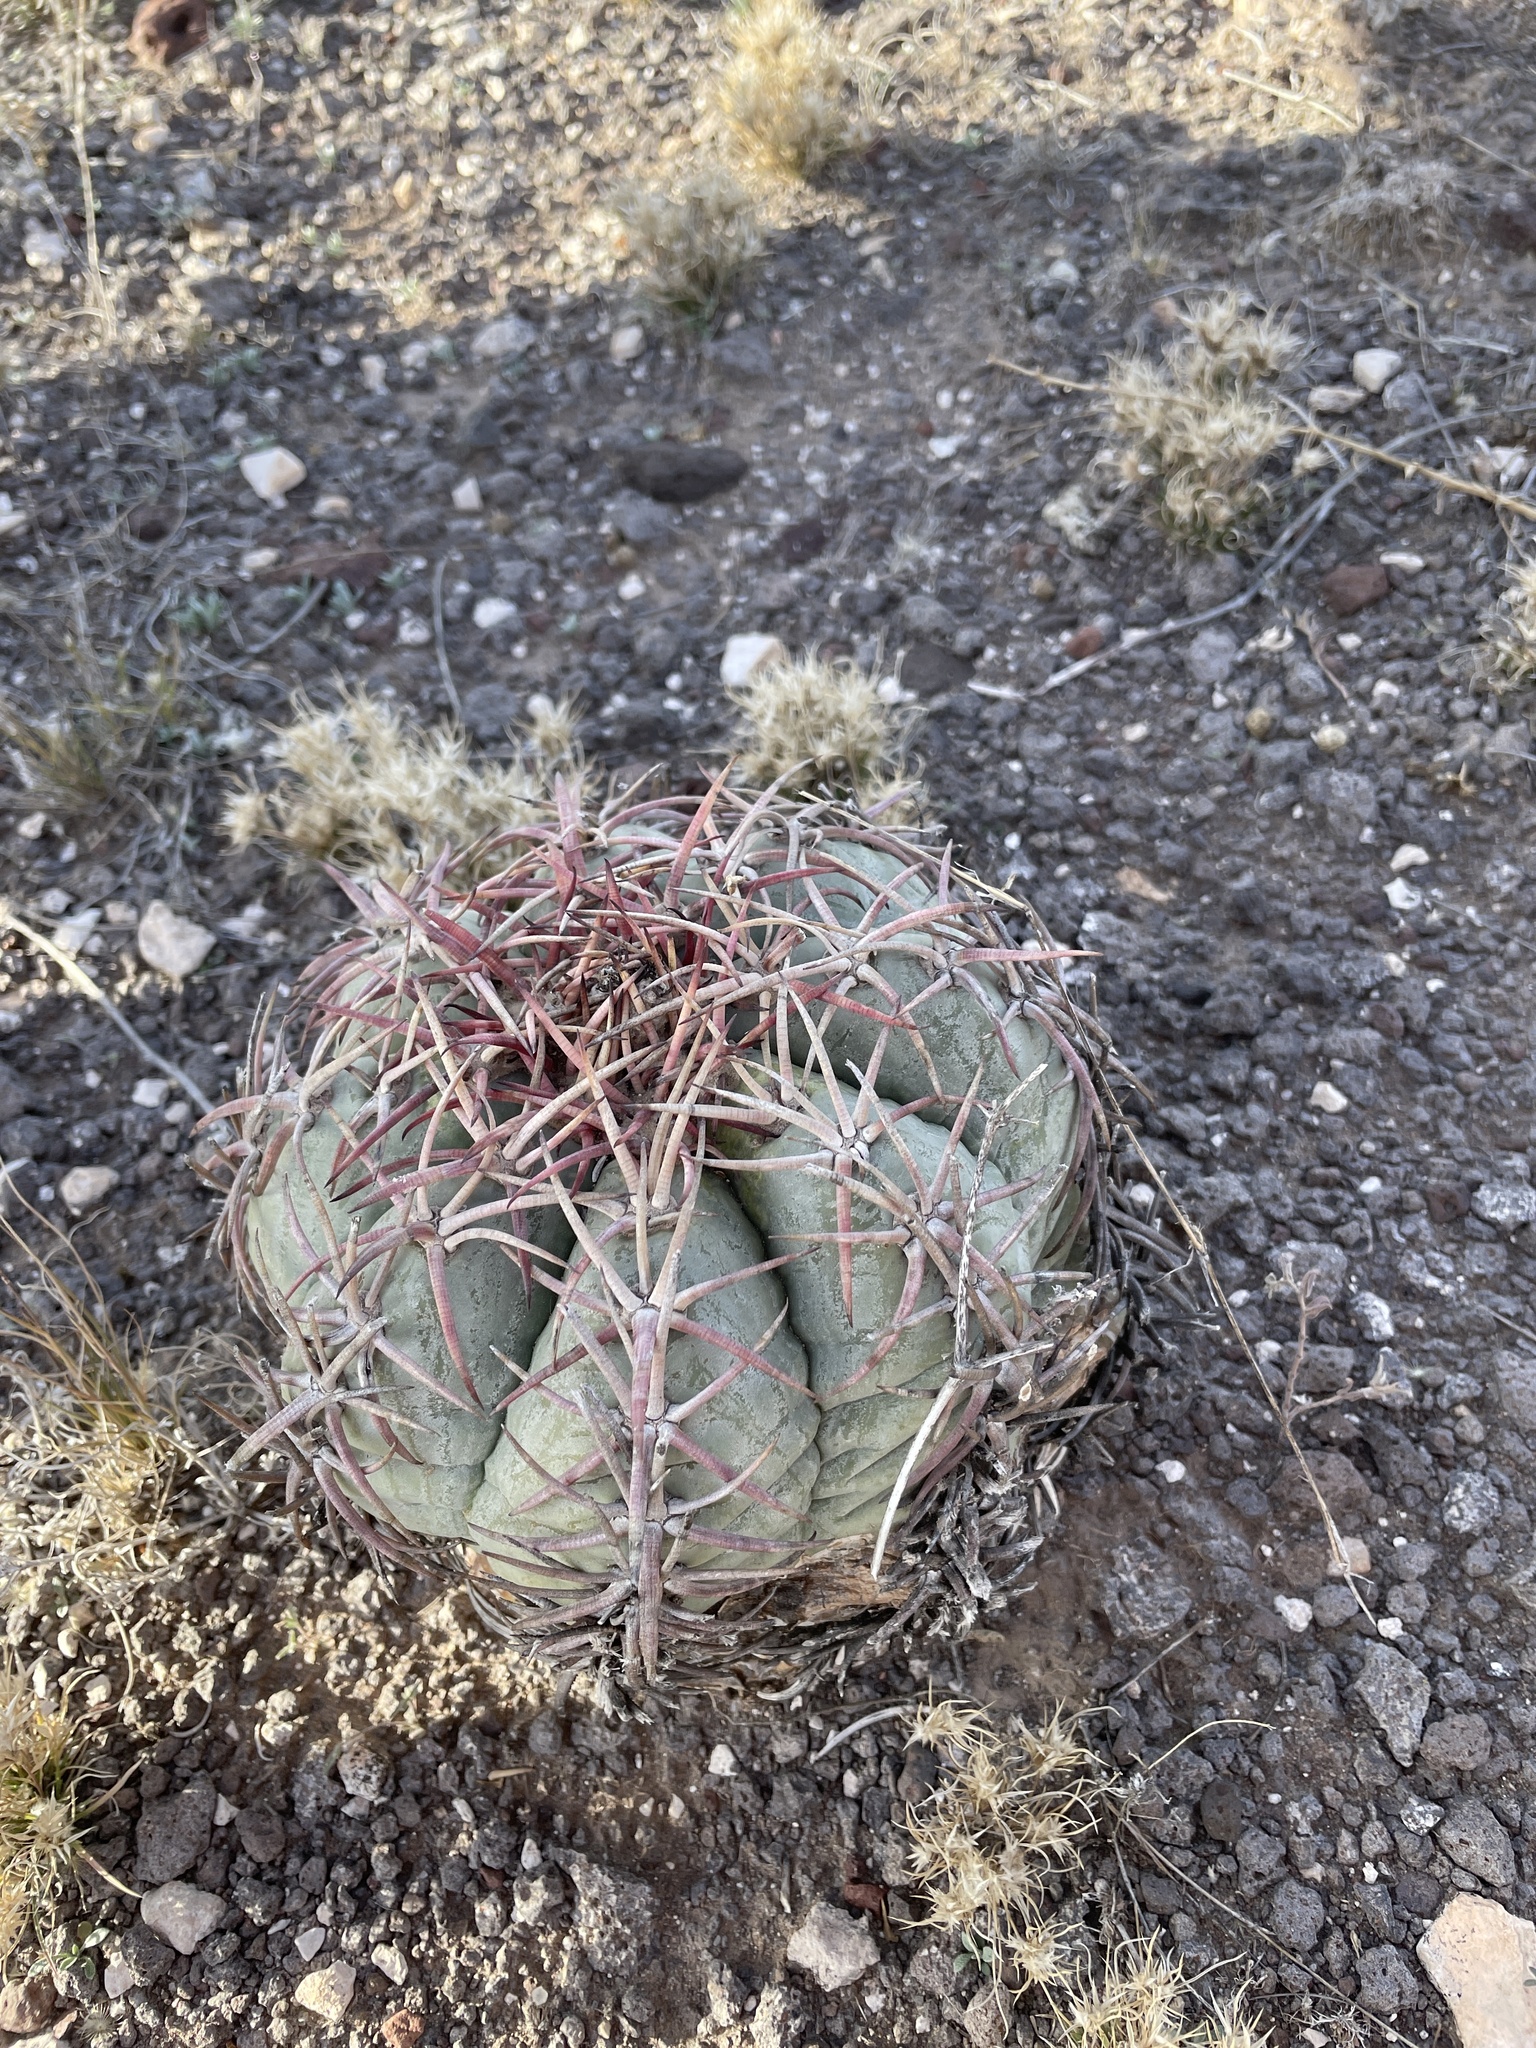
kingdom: Plantae
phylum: Tracheophyta
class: Magnoliopsida
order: Caryophyllales
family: Cactaceae
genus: Echinocactus
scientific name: Echinocactus horizonthalonius
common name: Devilshead
